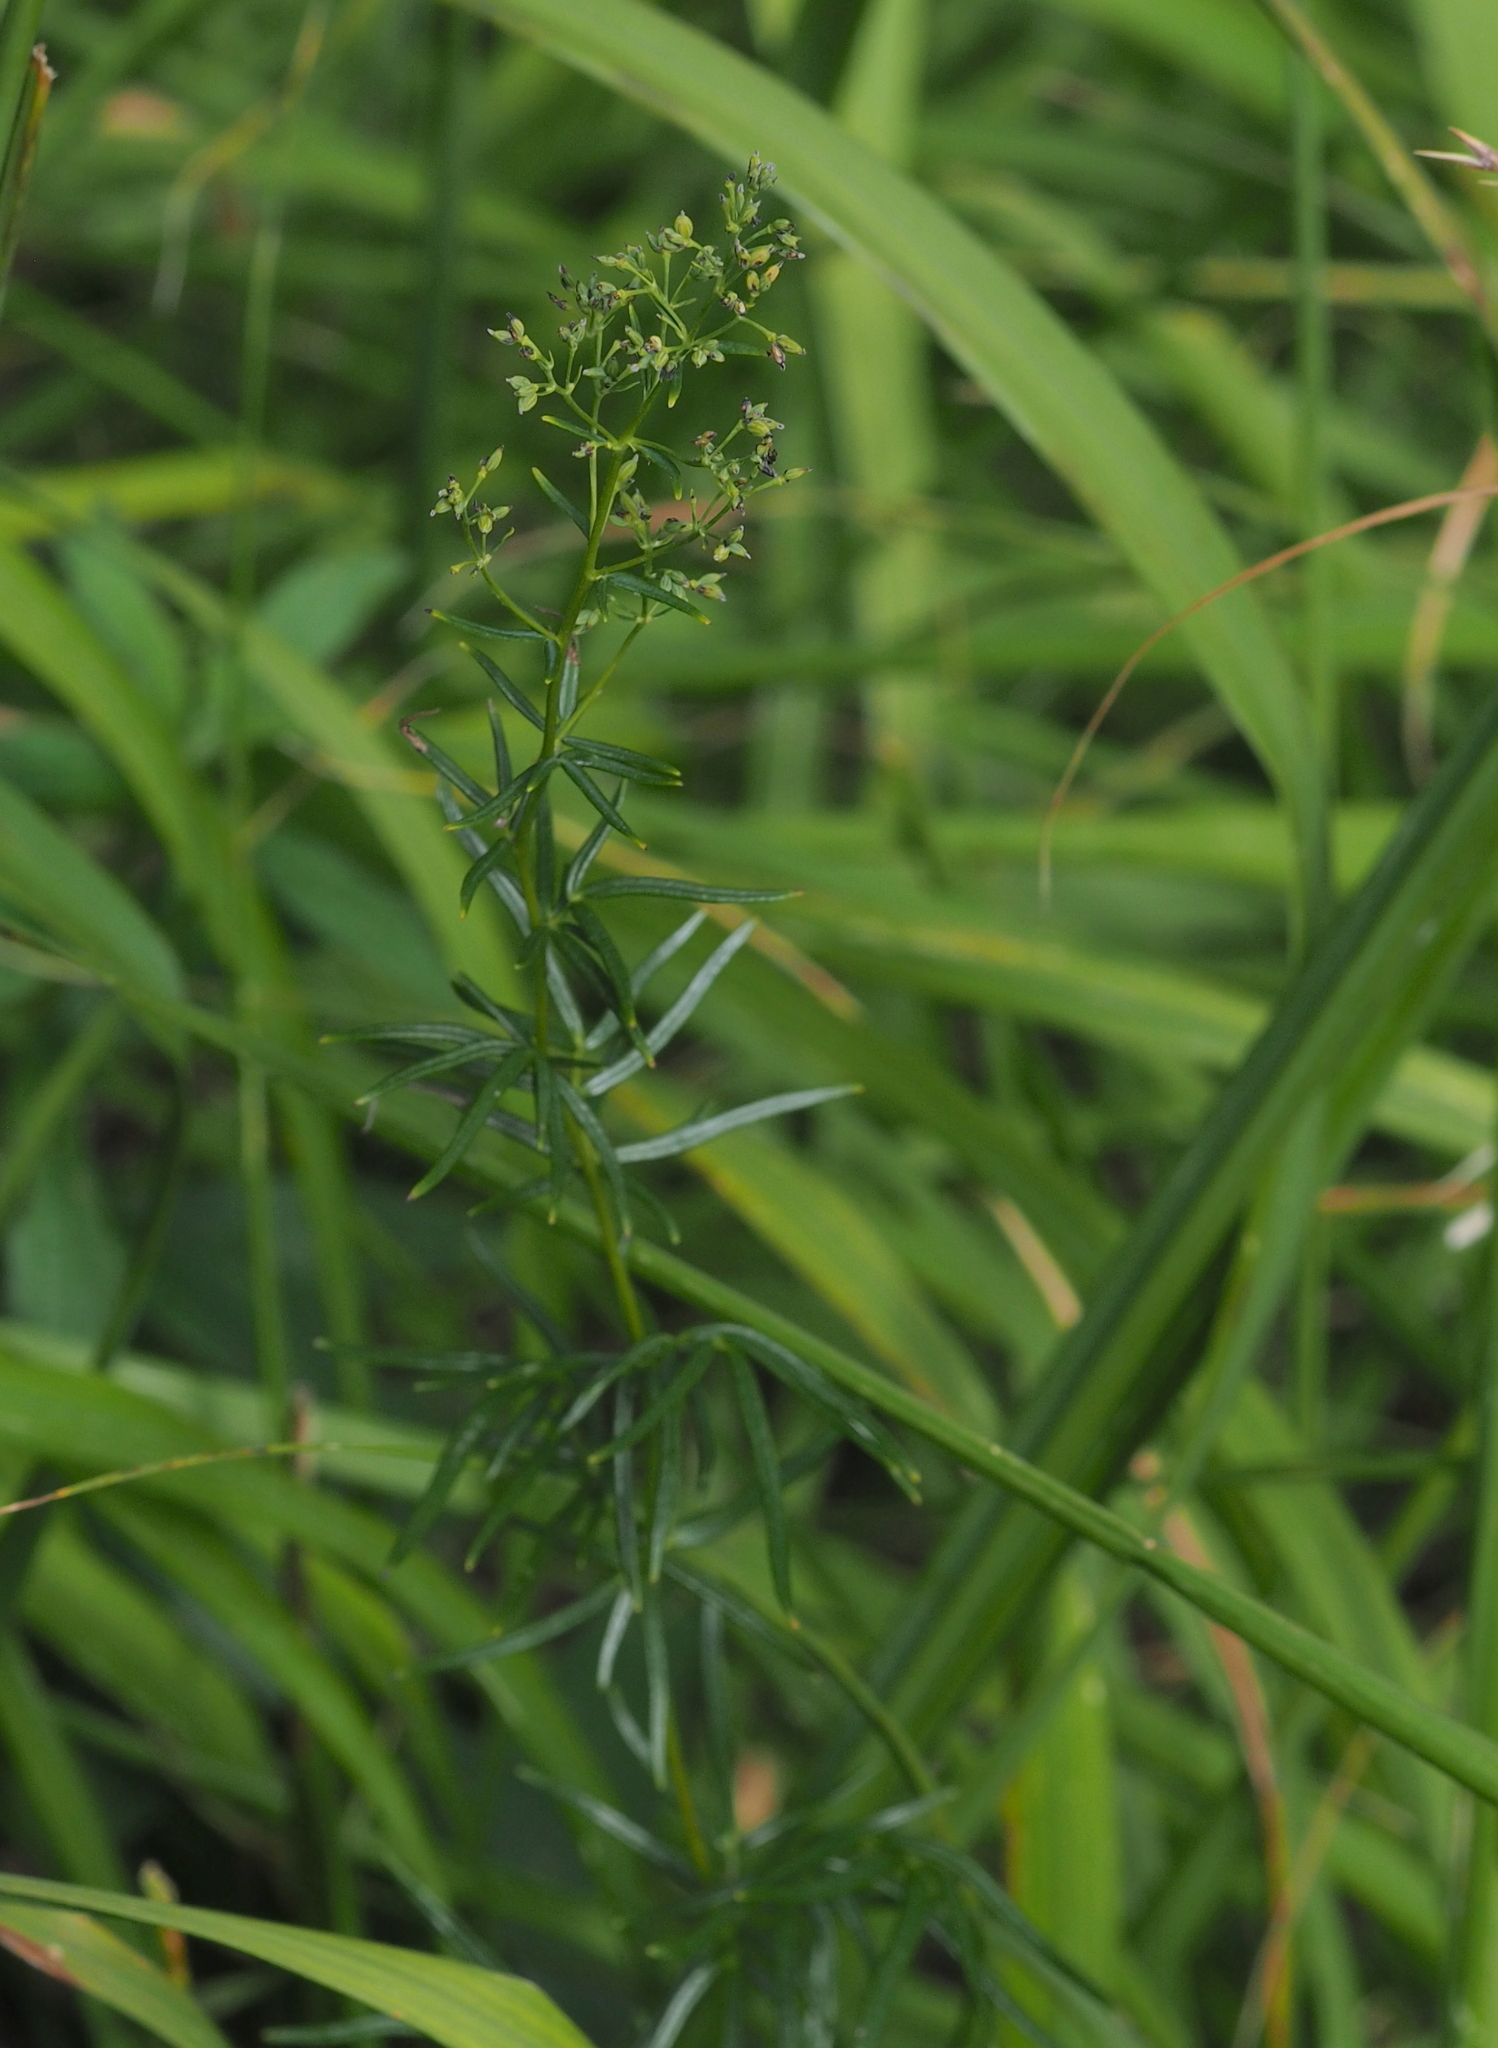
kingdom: Plantae
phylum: Tracheophyta
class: Magnoliopsida
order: Ranunculales
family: Ranunculaceae
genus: Thalictrum
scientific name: Thalictrum simplex
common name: Small meadow-rue
